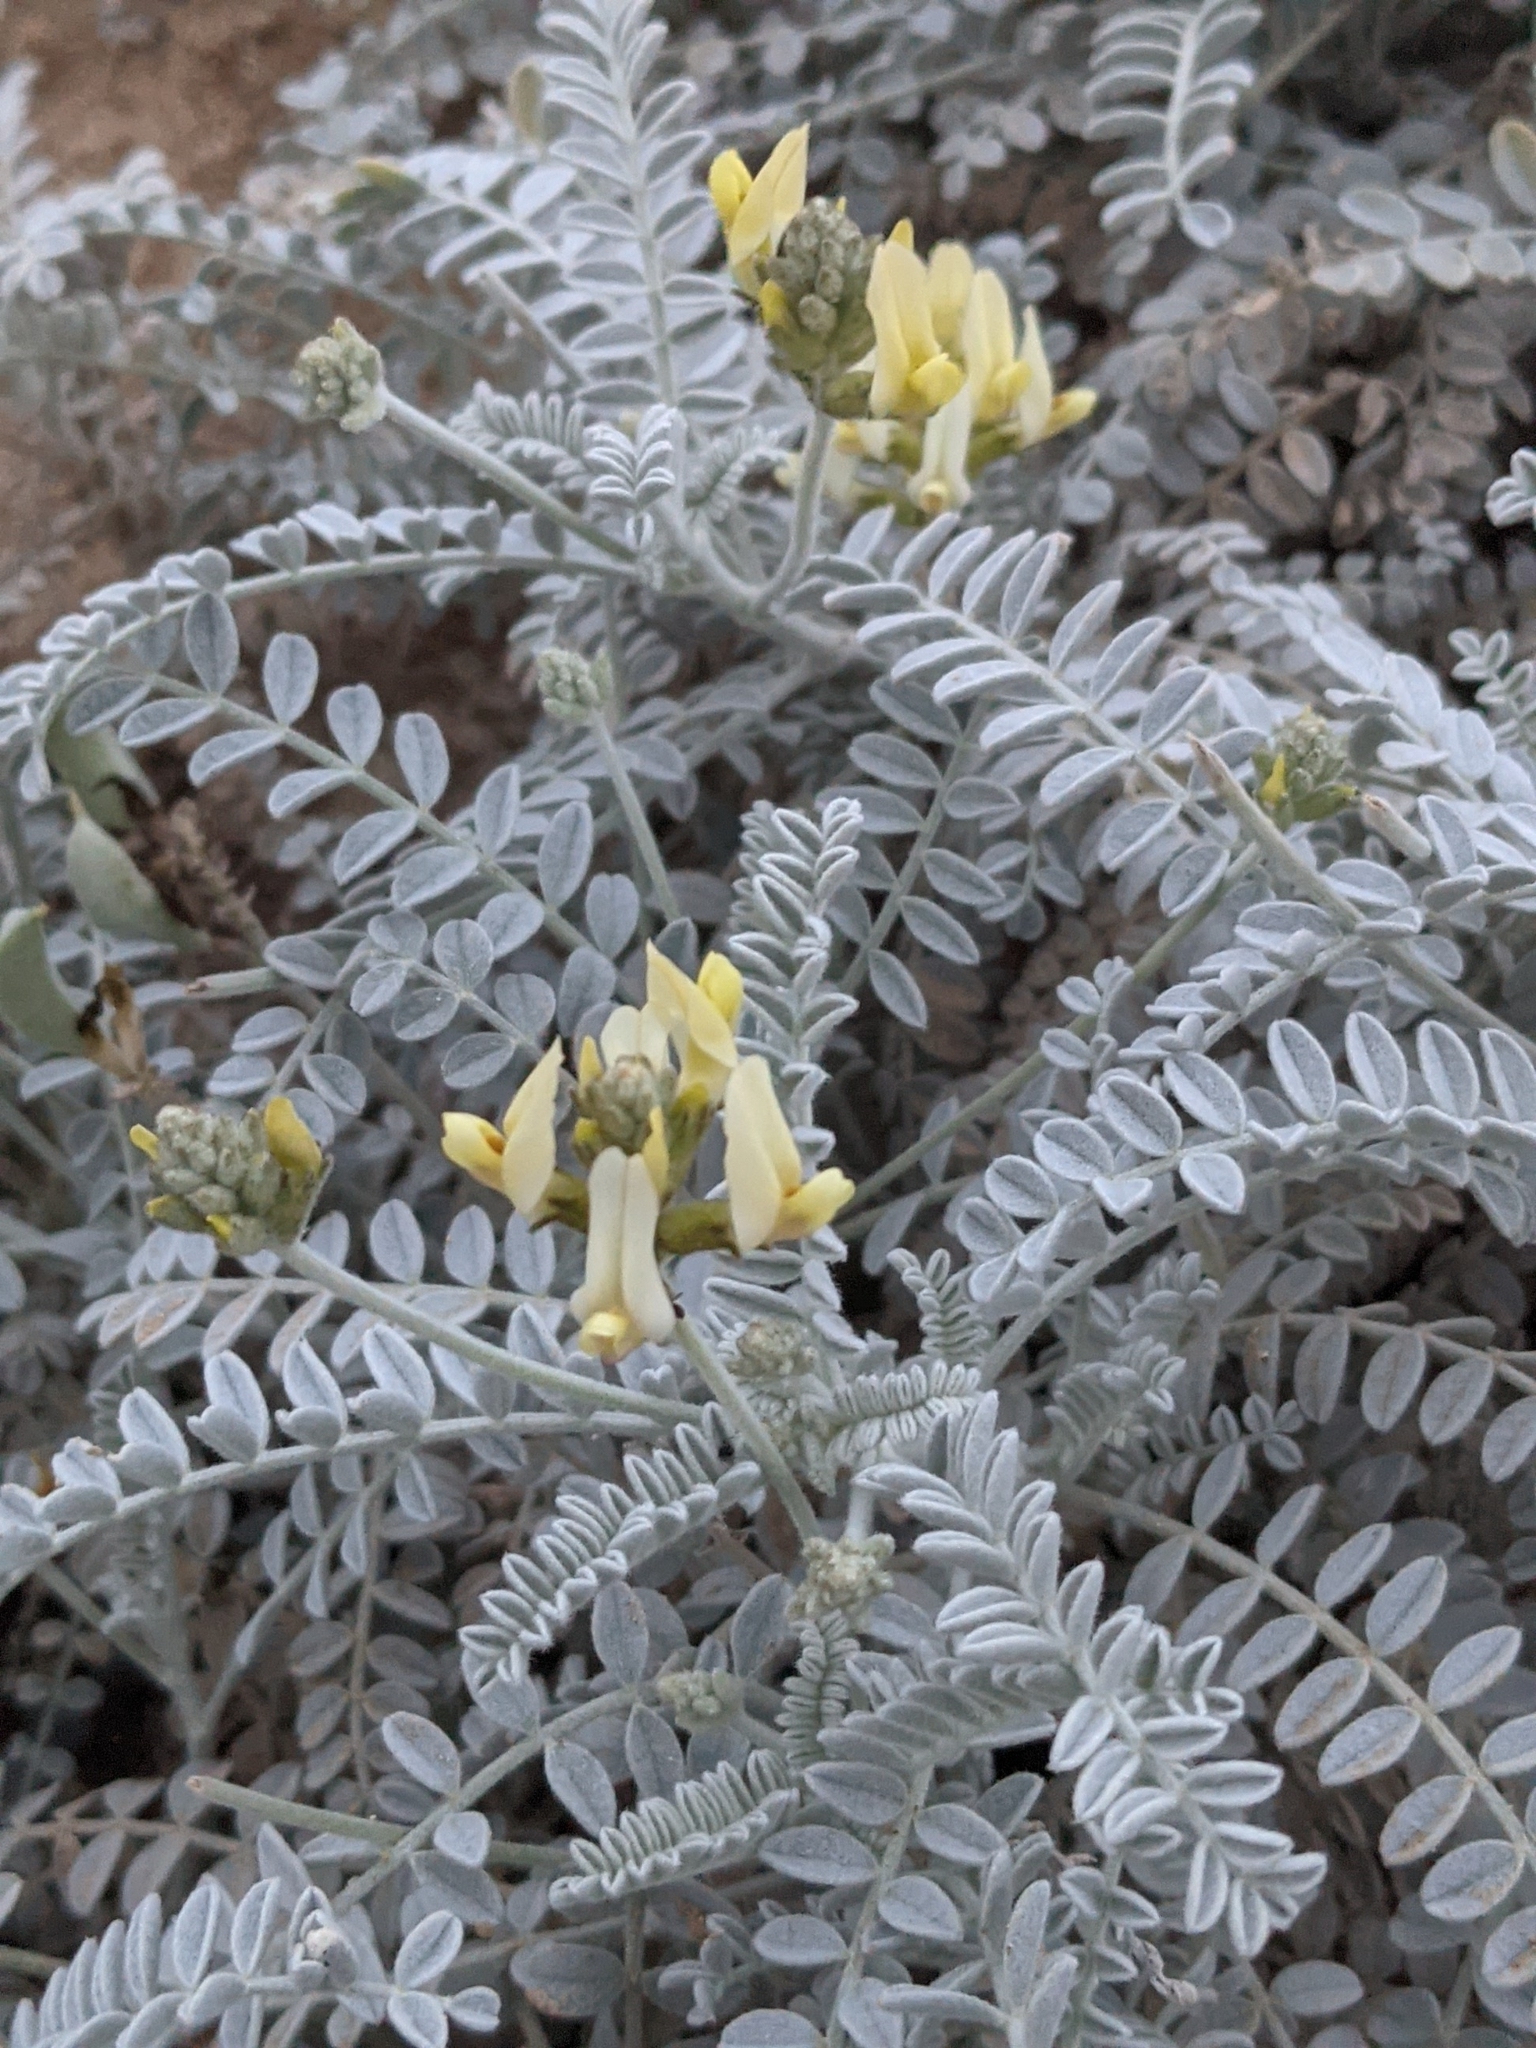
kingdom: Plantae
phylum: Tracheophyta
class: Magnoliopsida
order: Fabales
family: Fabaceae
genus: Astragalus
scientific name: Astragalus traskiae
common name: Trask's milk-vetch
